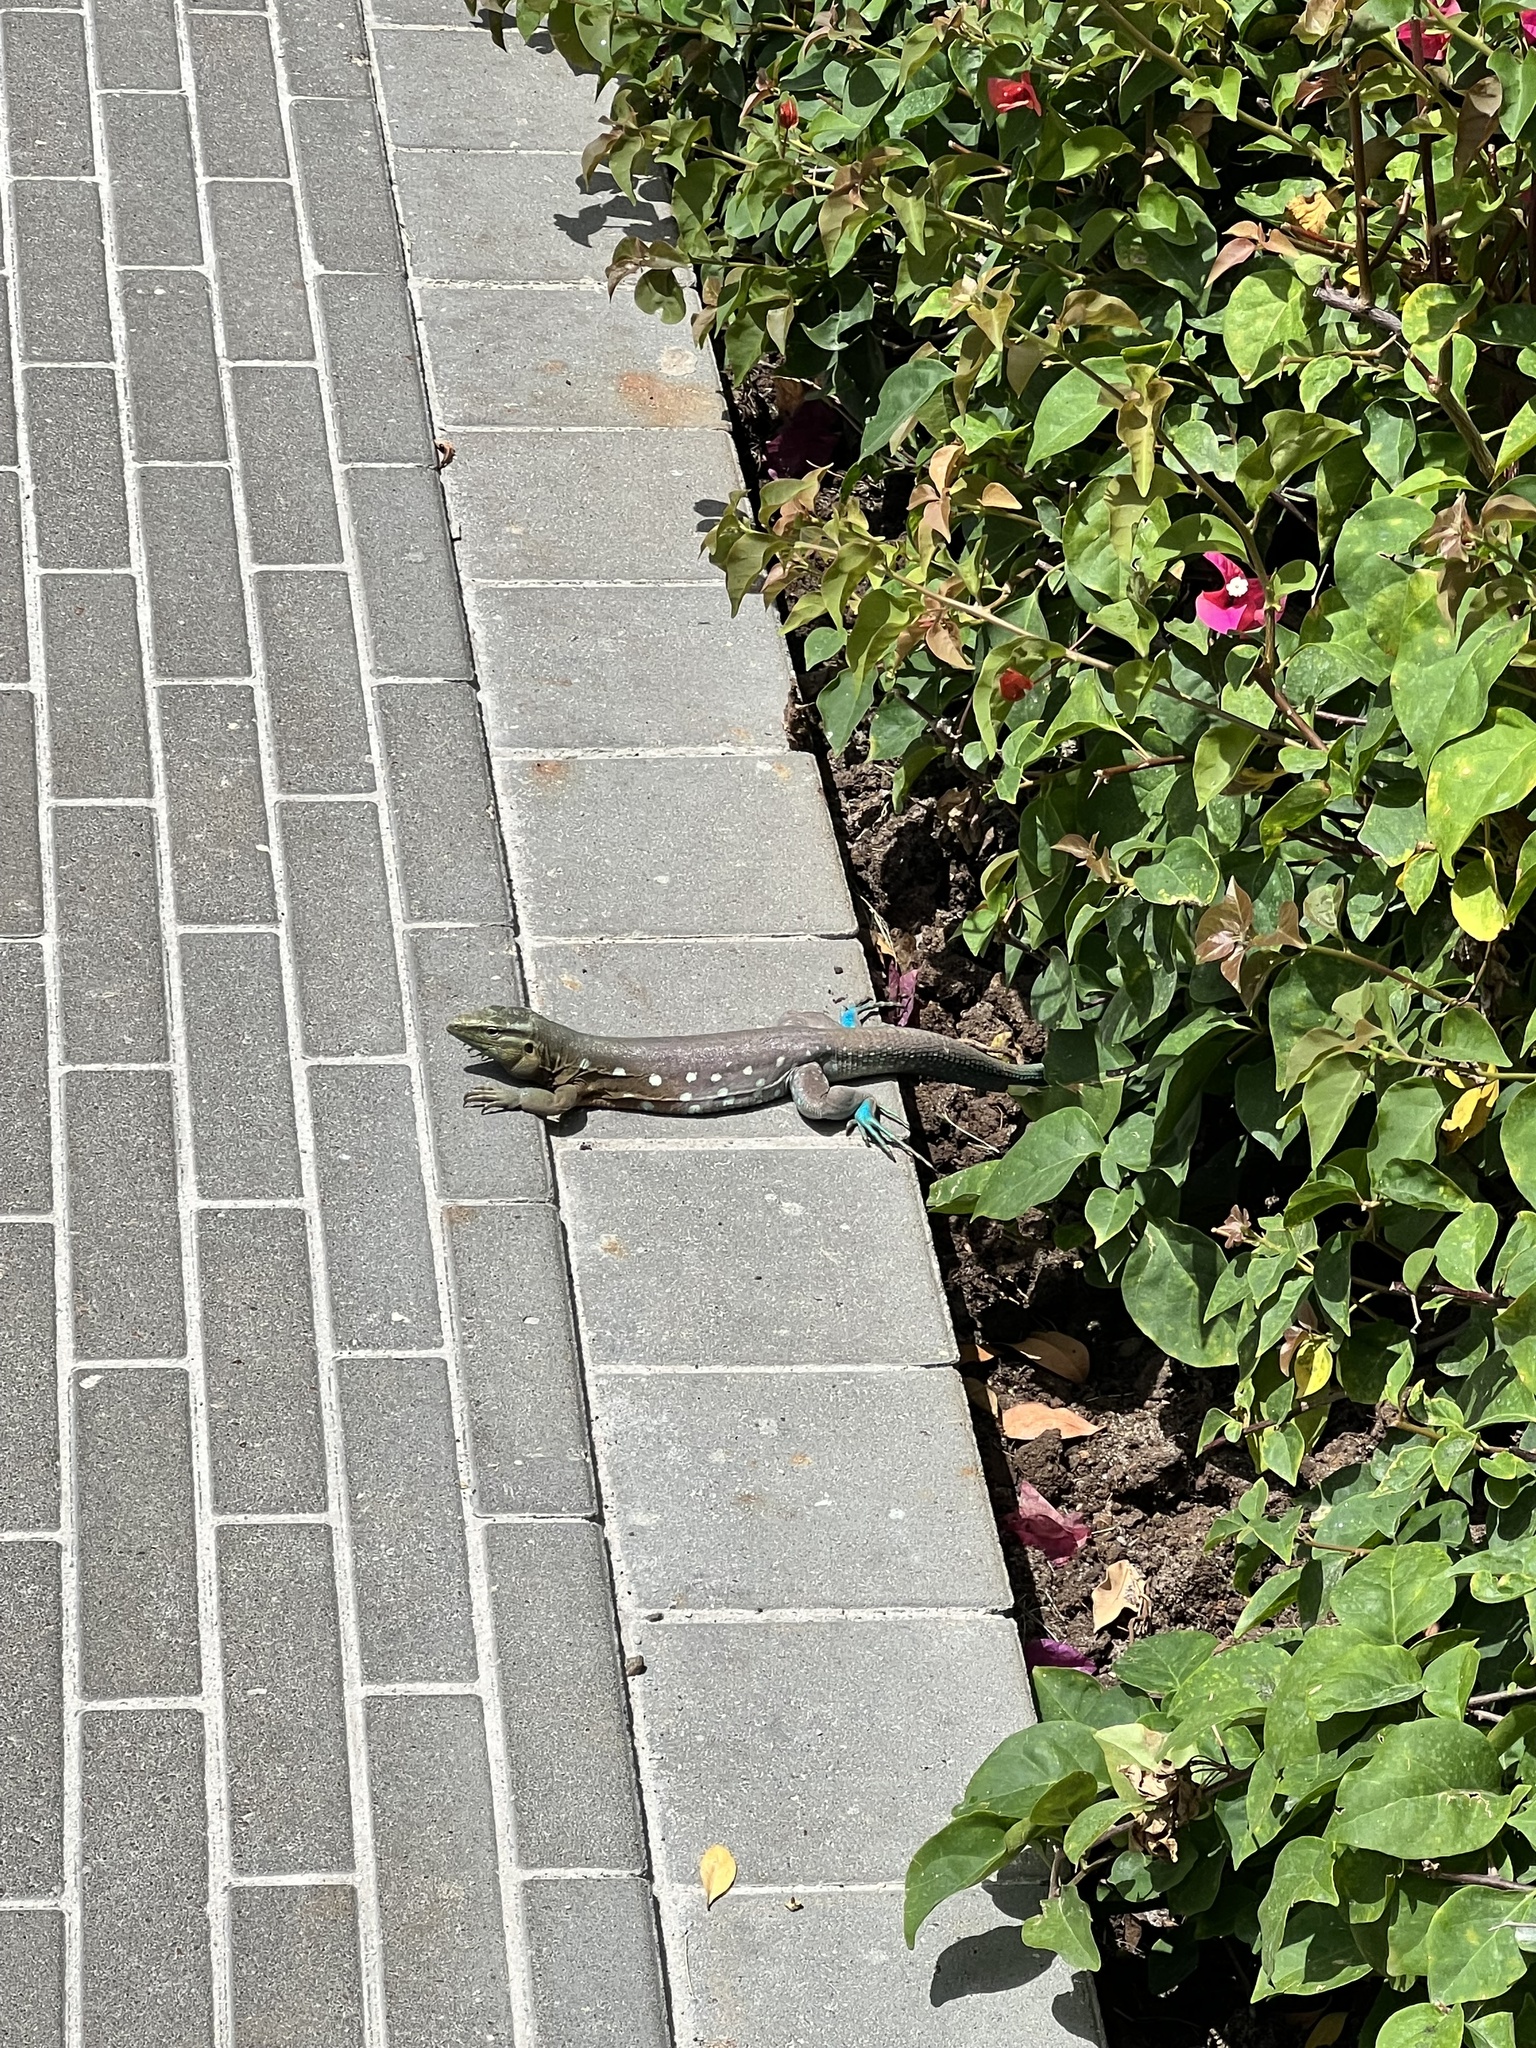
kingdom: Animalia
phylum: Chordata
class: Squamata
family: Teiidae
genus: Cnemidophorus
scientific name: Cnemidophorus murinus
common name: Laurent's whiptail
